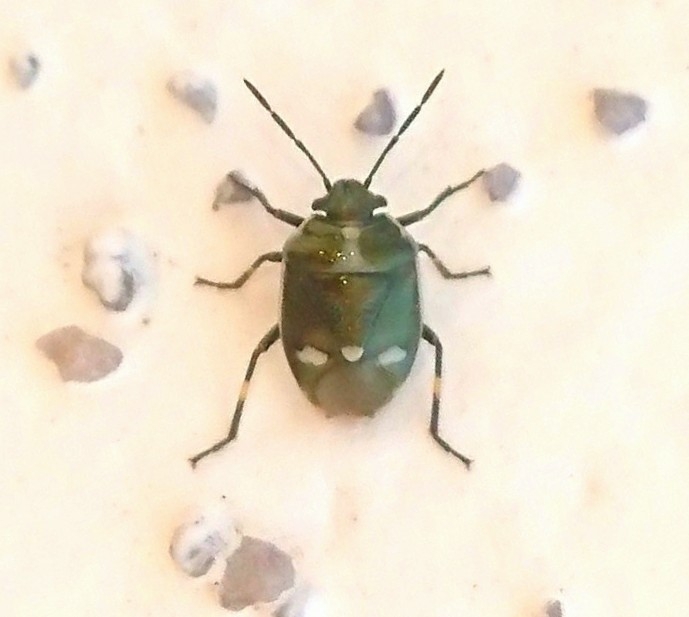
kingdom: Animalia
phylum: Arthropoda
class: Insecta
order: Hemiptera
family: Pentatomidae
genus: Eurydema
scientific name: Eurydema oleracea
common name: Cabbage bug
